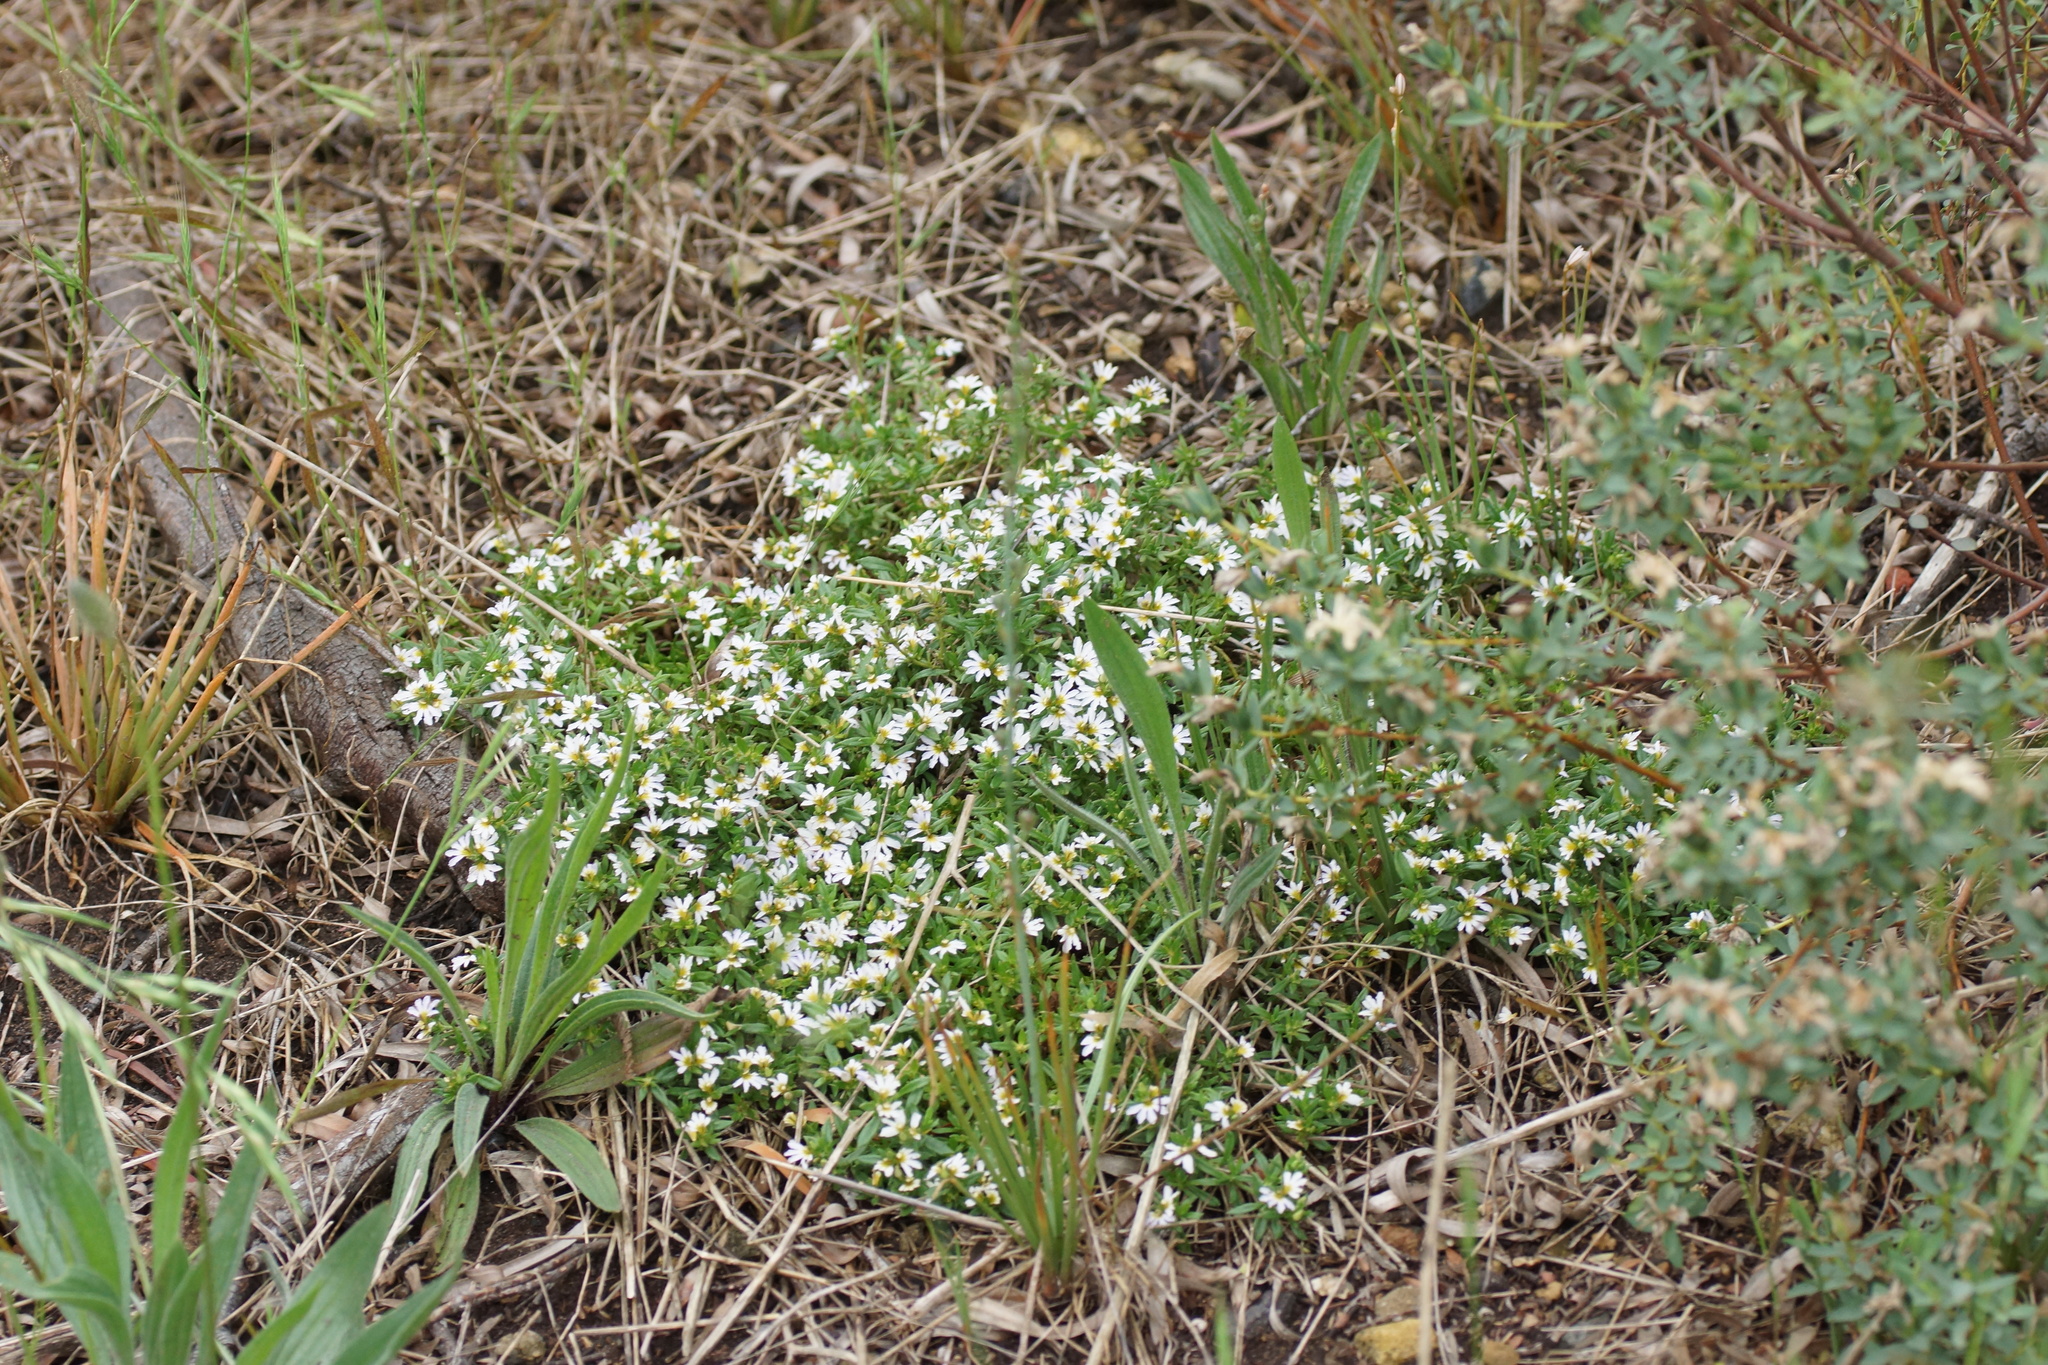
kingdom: Plantae
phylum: Tracheophyta
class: Magnoliopsida
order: Asterales
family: Goodeniaceae
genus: Scaevola
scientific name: Scaevola albida
